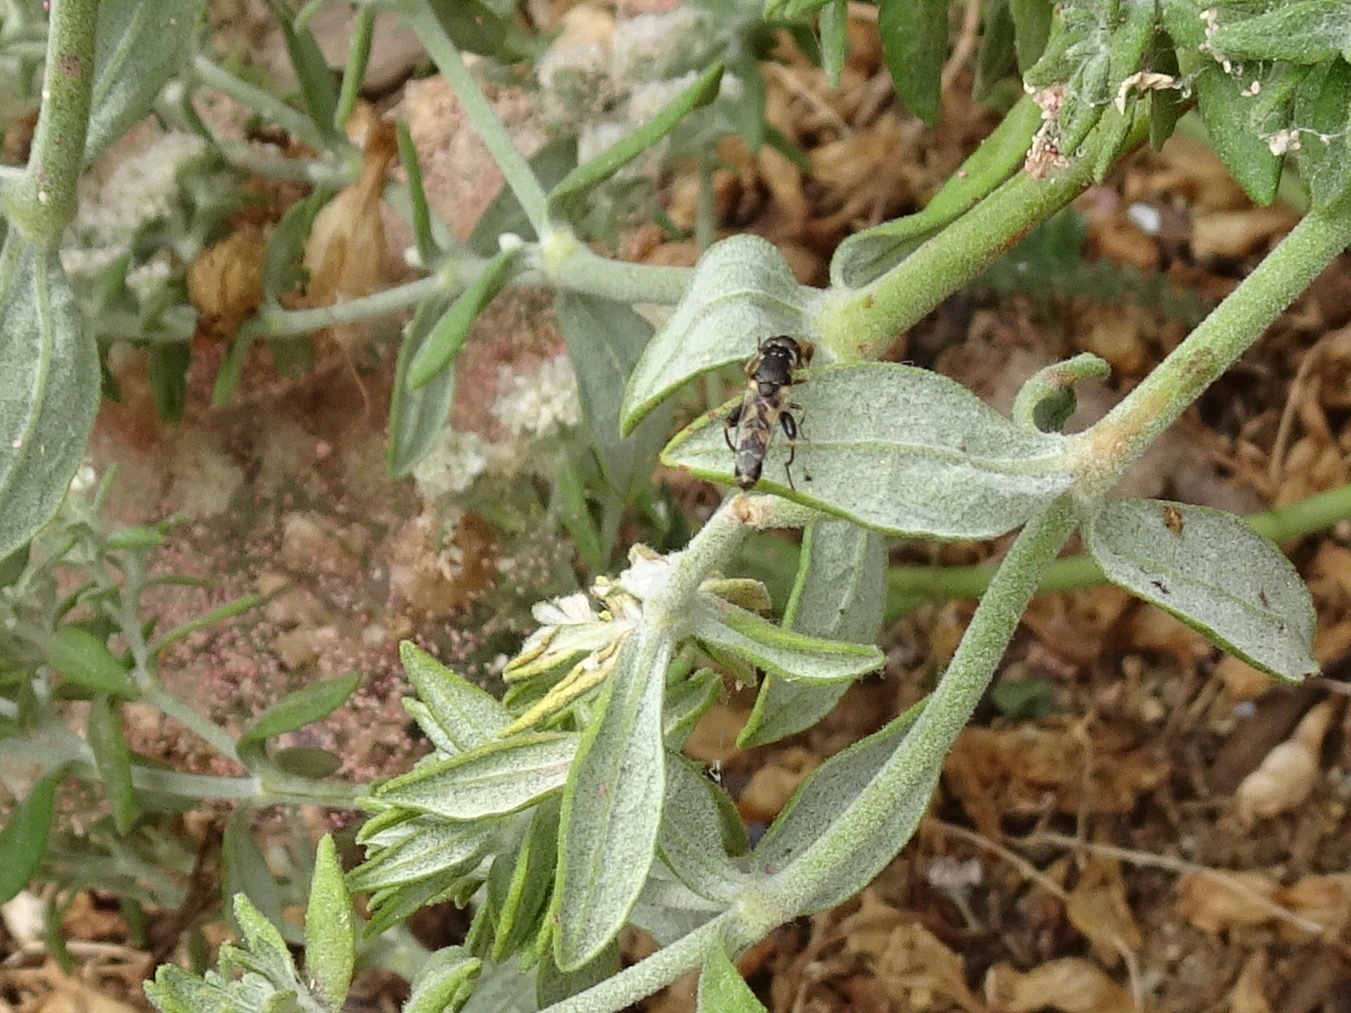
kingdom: Animalia
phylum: Arthropoda
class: Insecta
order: Diptera
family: Syrphidae
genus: Syritta
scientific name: Syritta pipiens
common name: Hover fly
